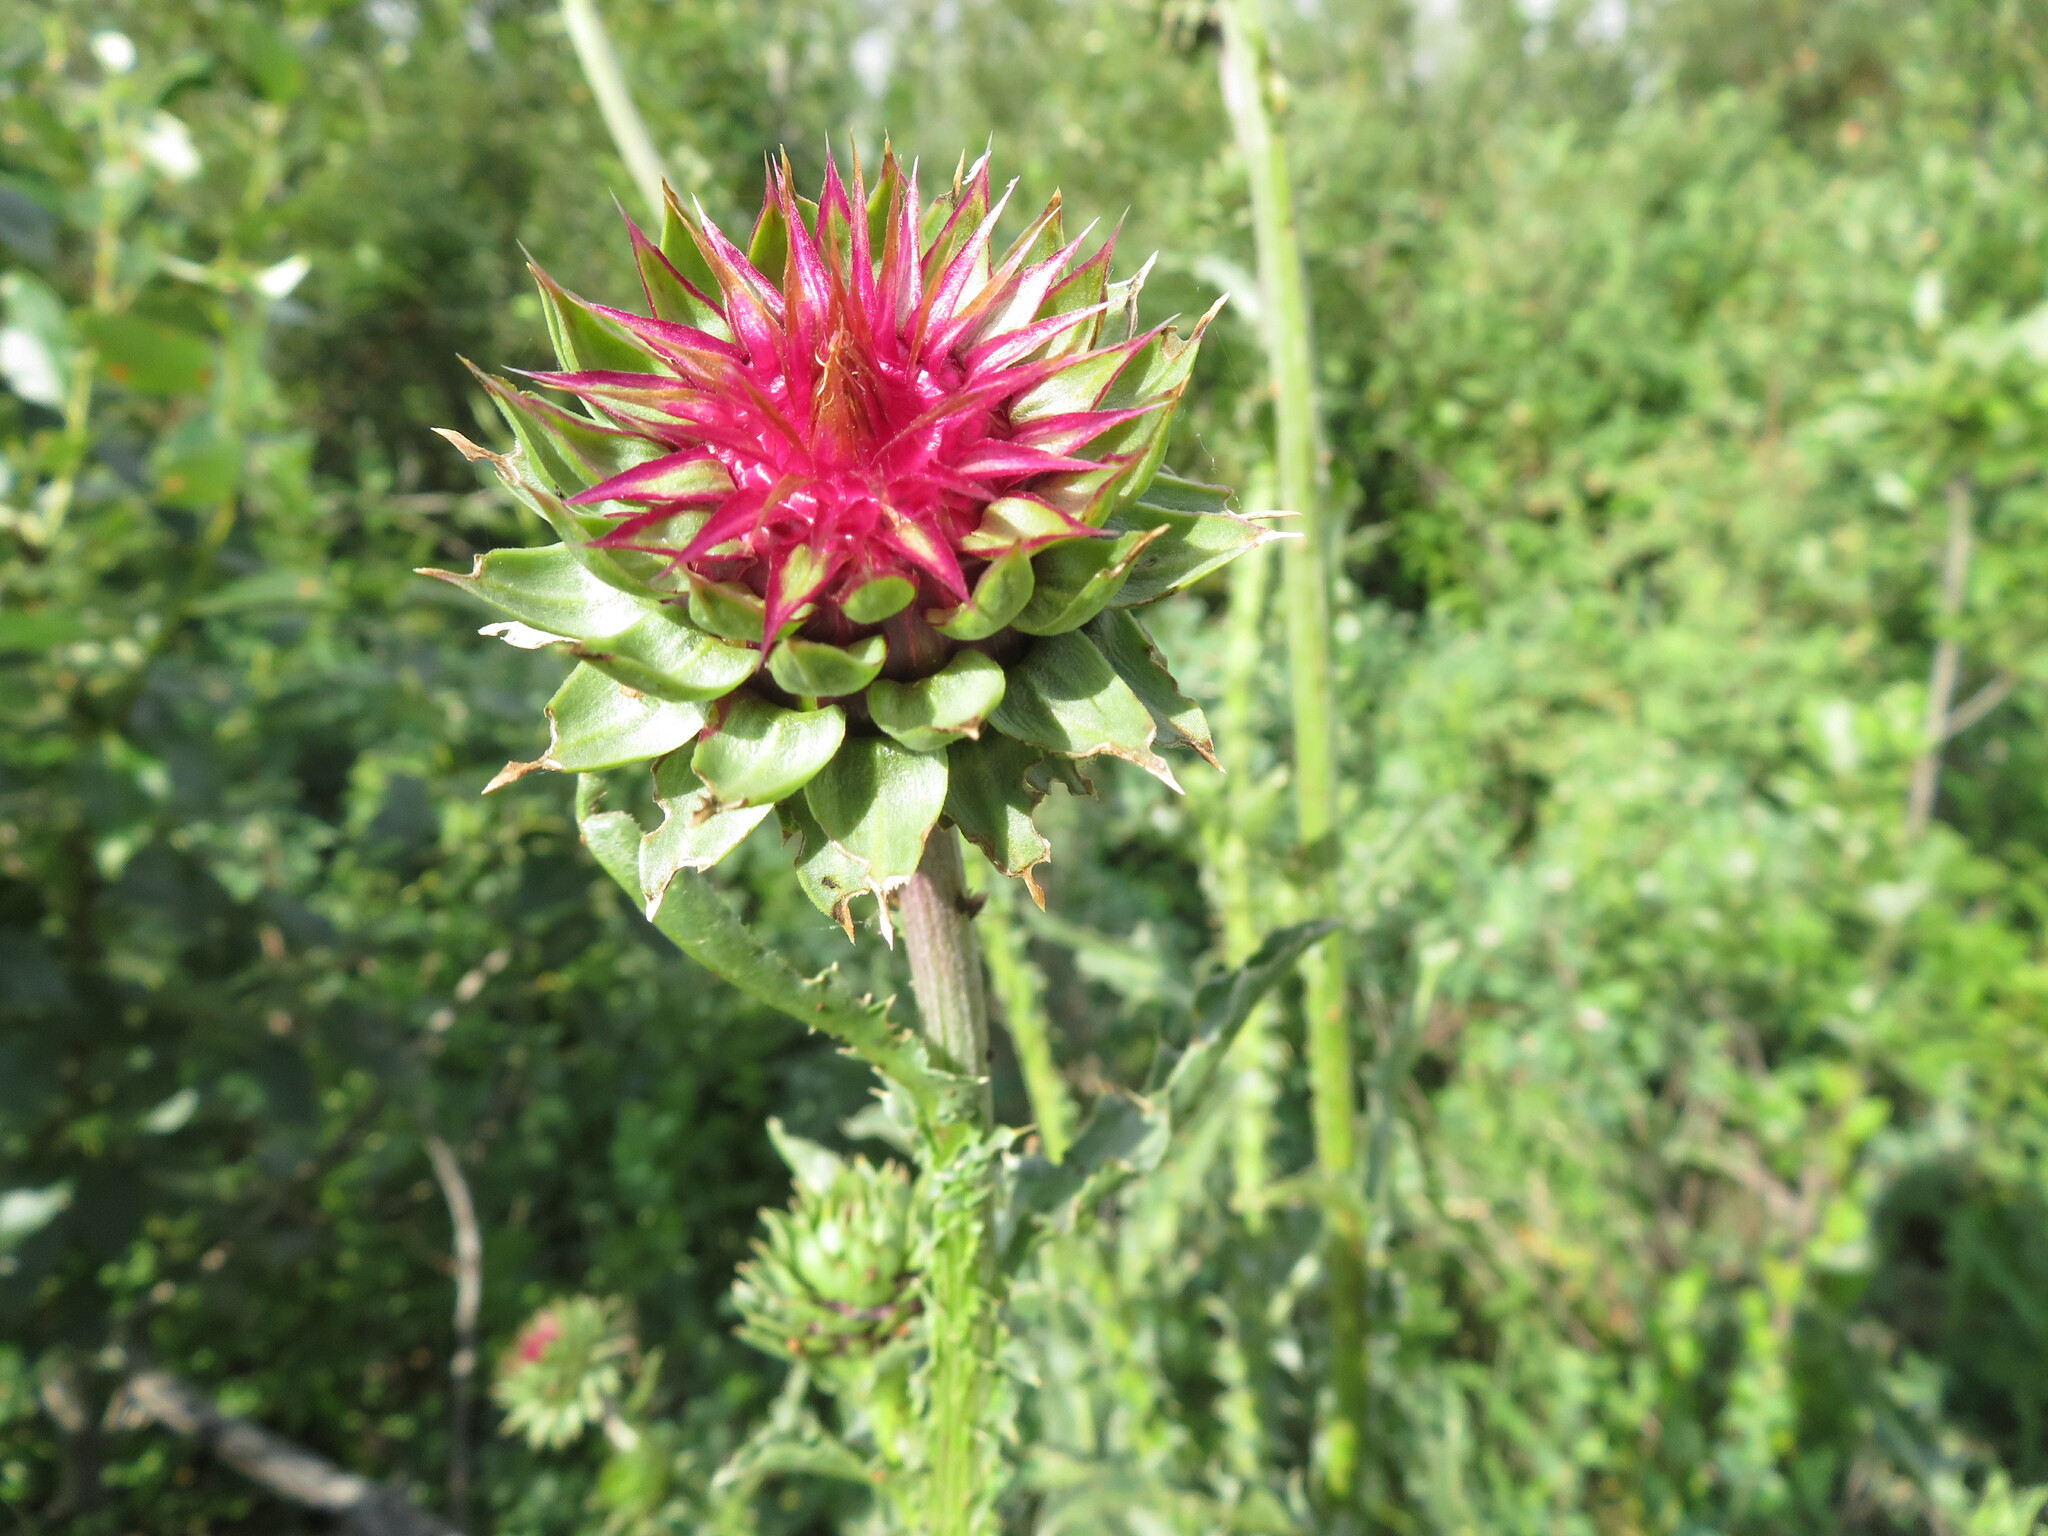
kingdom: Plantae
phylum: Tracheophyta
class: Magnoliopsida
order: Asterales
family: Asteraceae
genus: Carduus
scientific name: Carduus nutans
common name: Musk thistle
